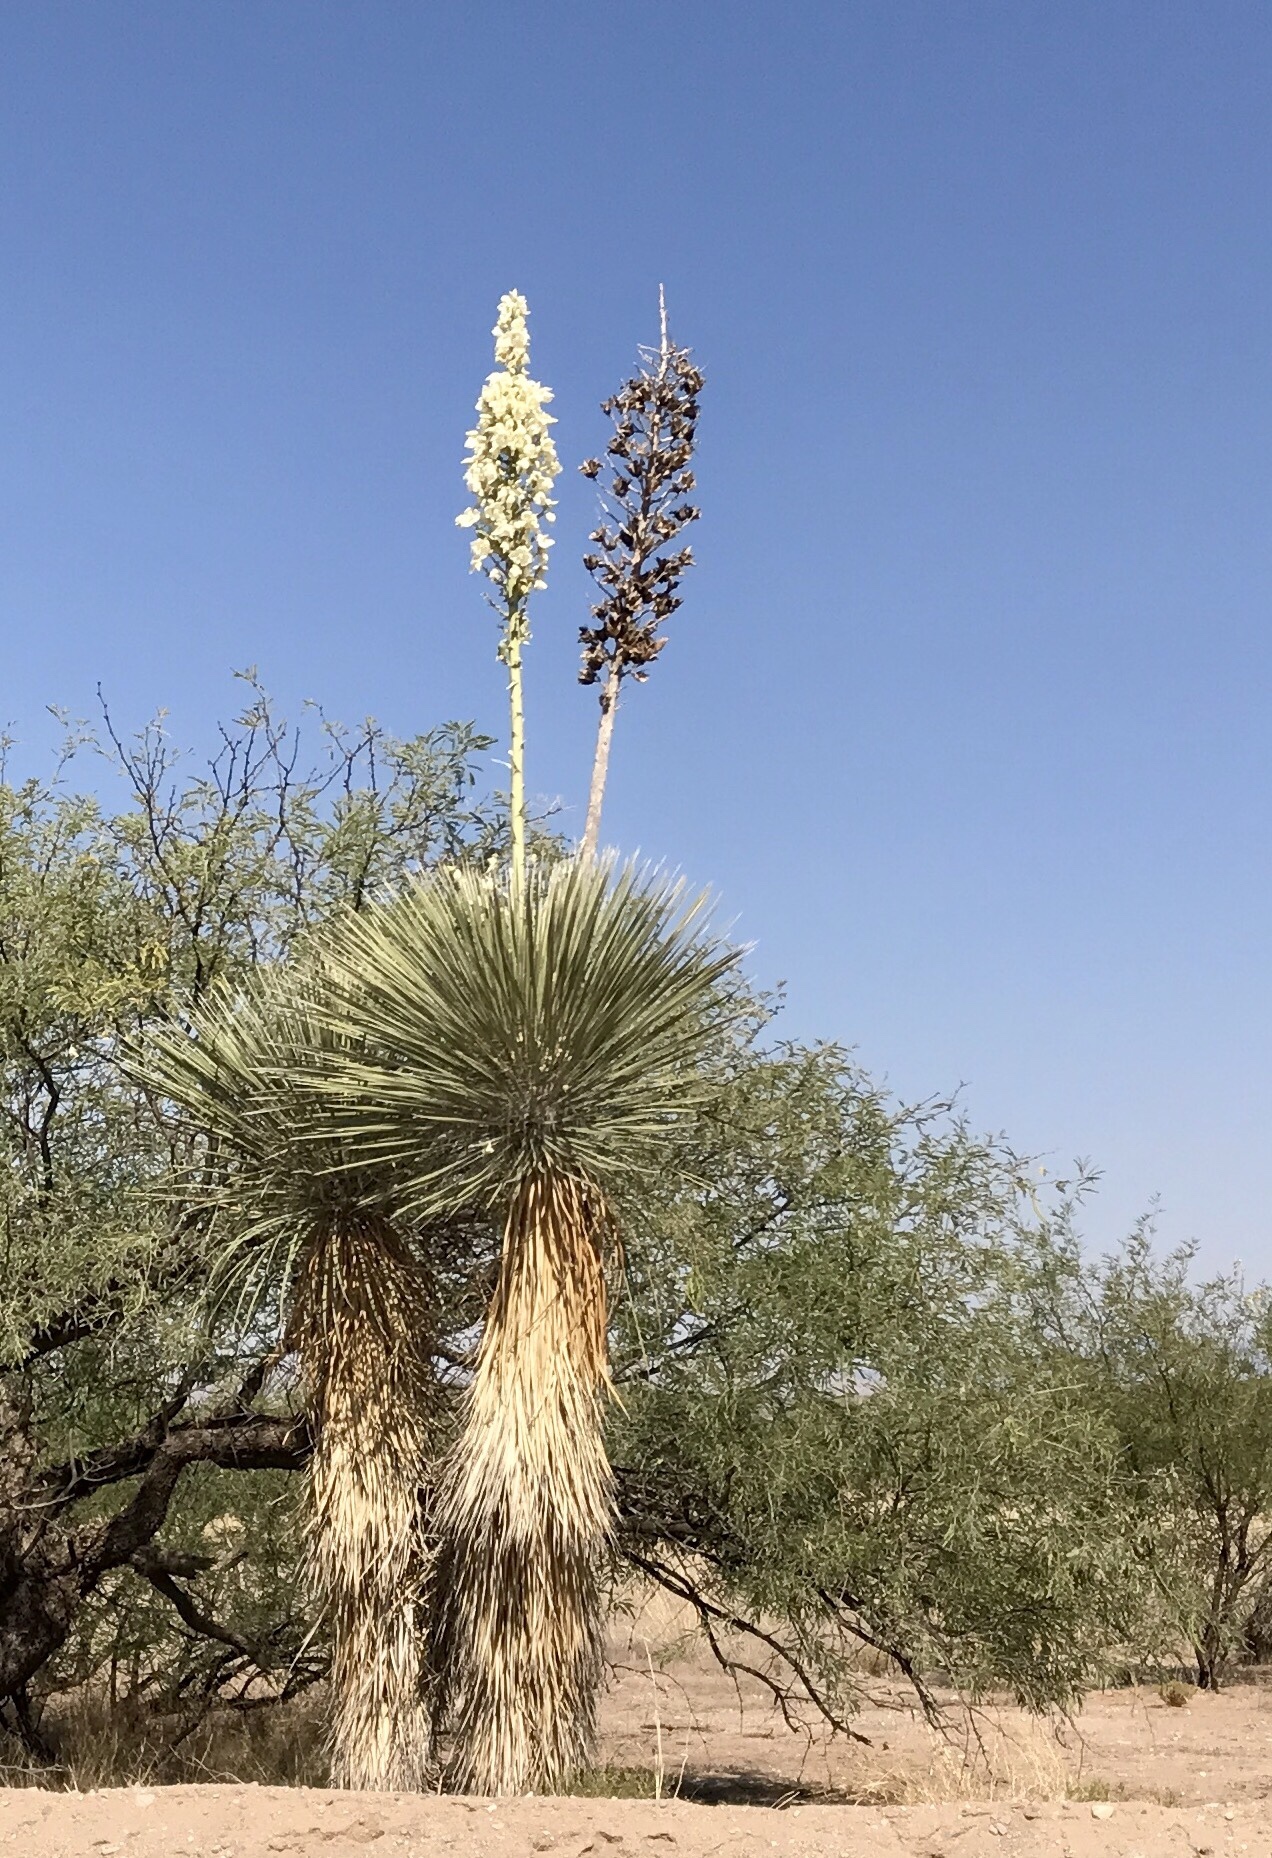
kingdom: Plantae
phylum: Tracheophyta
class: Liliopsida
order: Asparagales
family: Asparagaceae
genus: Yucca
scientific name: Yucca elata
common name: Palmella
